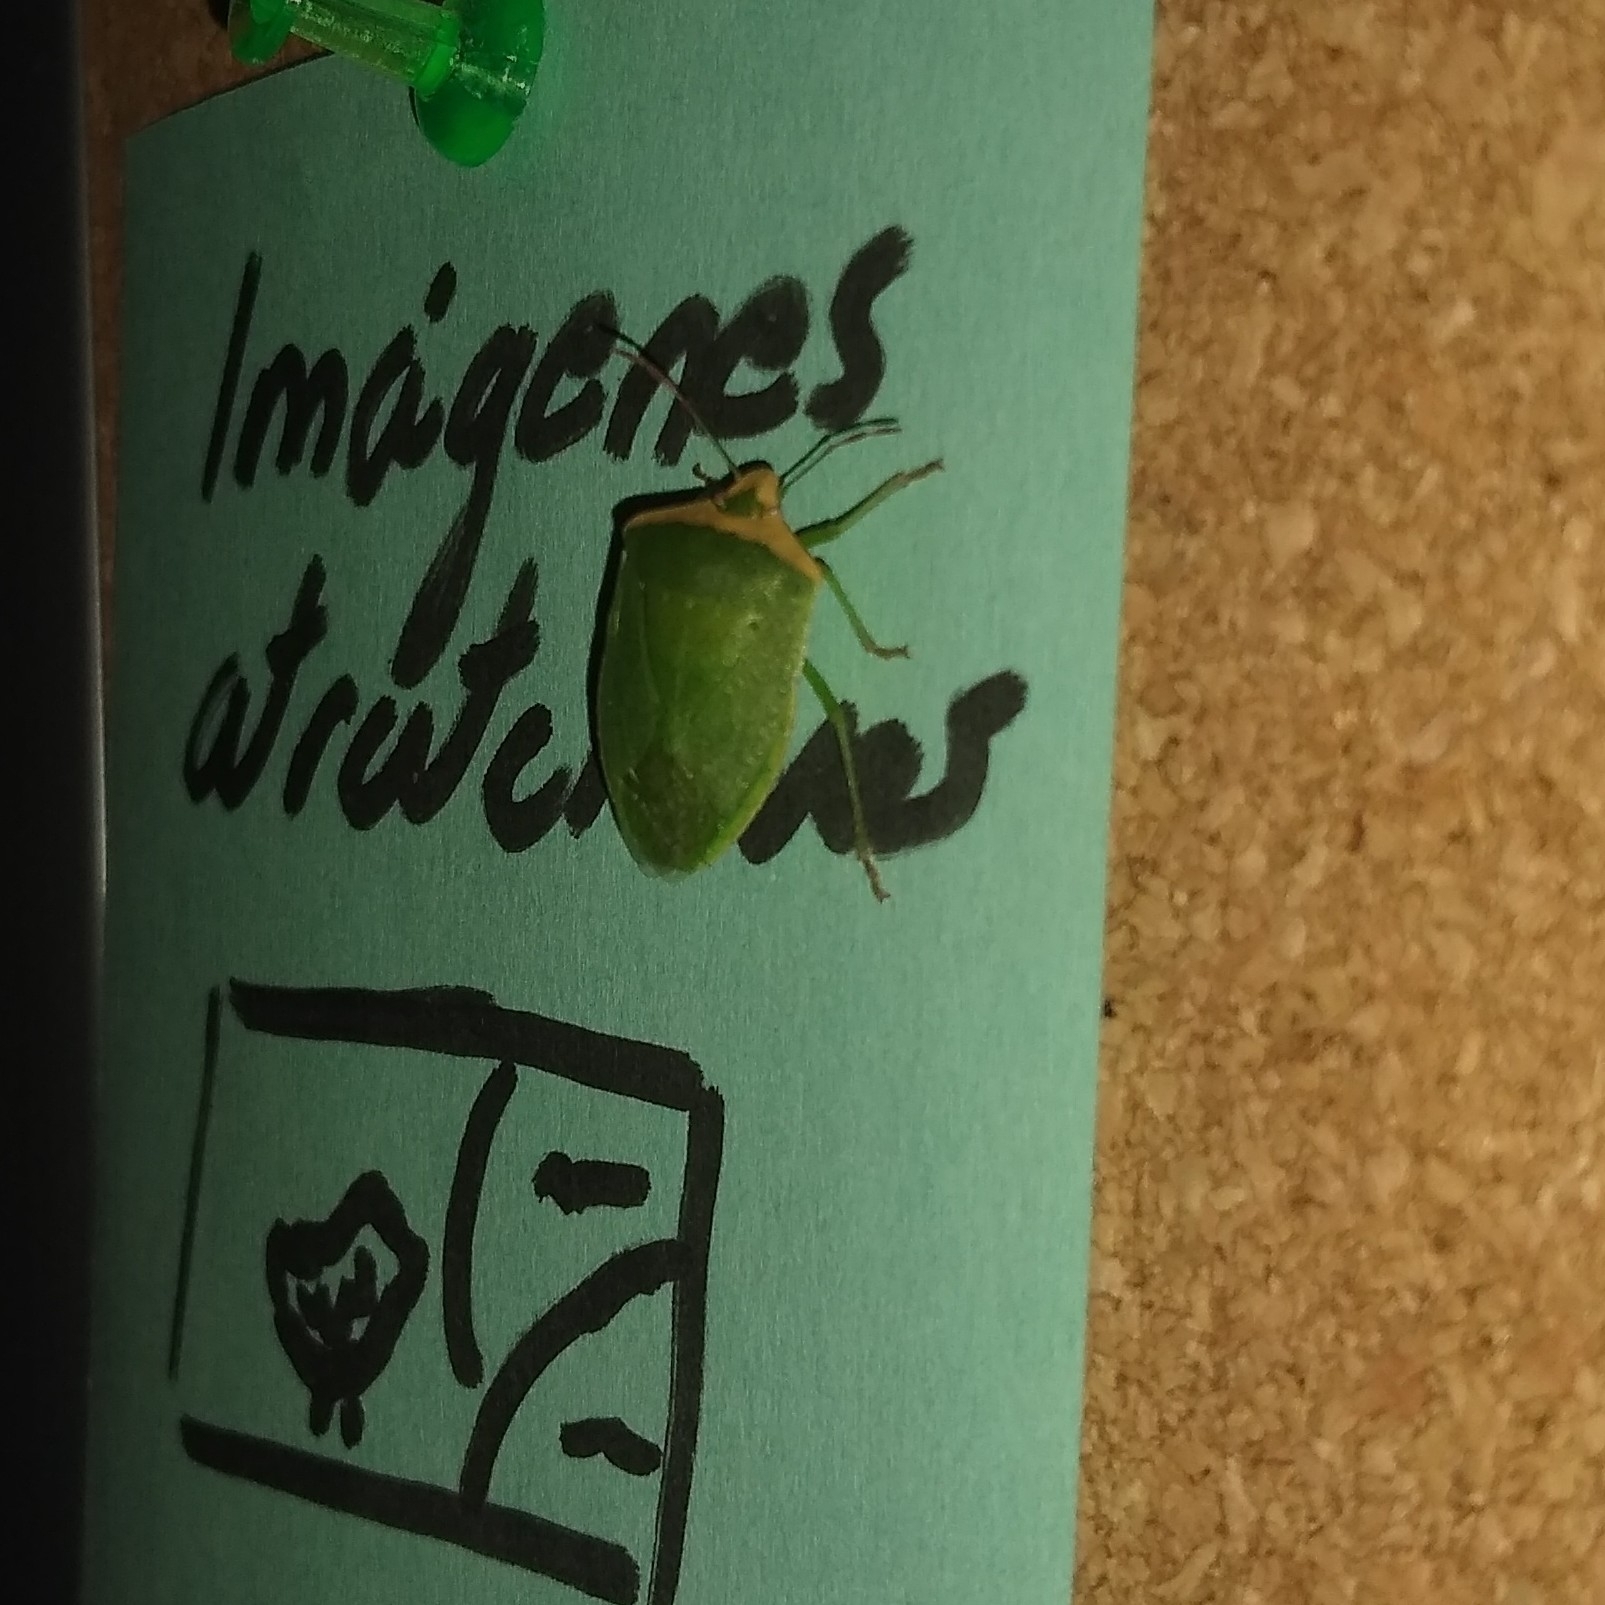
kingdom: Animalia
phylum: Arthropoda
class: Insecta
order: Hemiptera
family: Pentatomidae
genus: Nezara
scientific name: Nezara viridula
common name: Southern green stink bug
